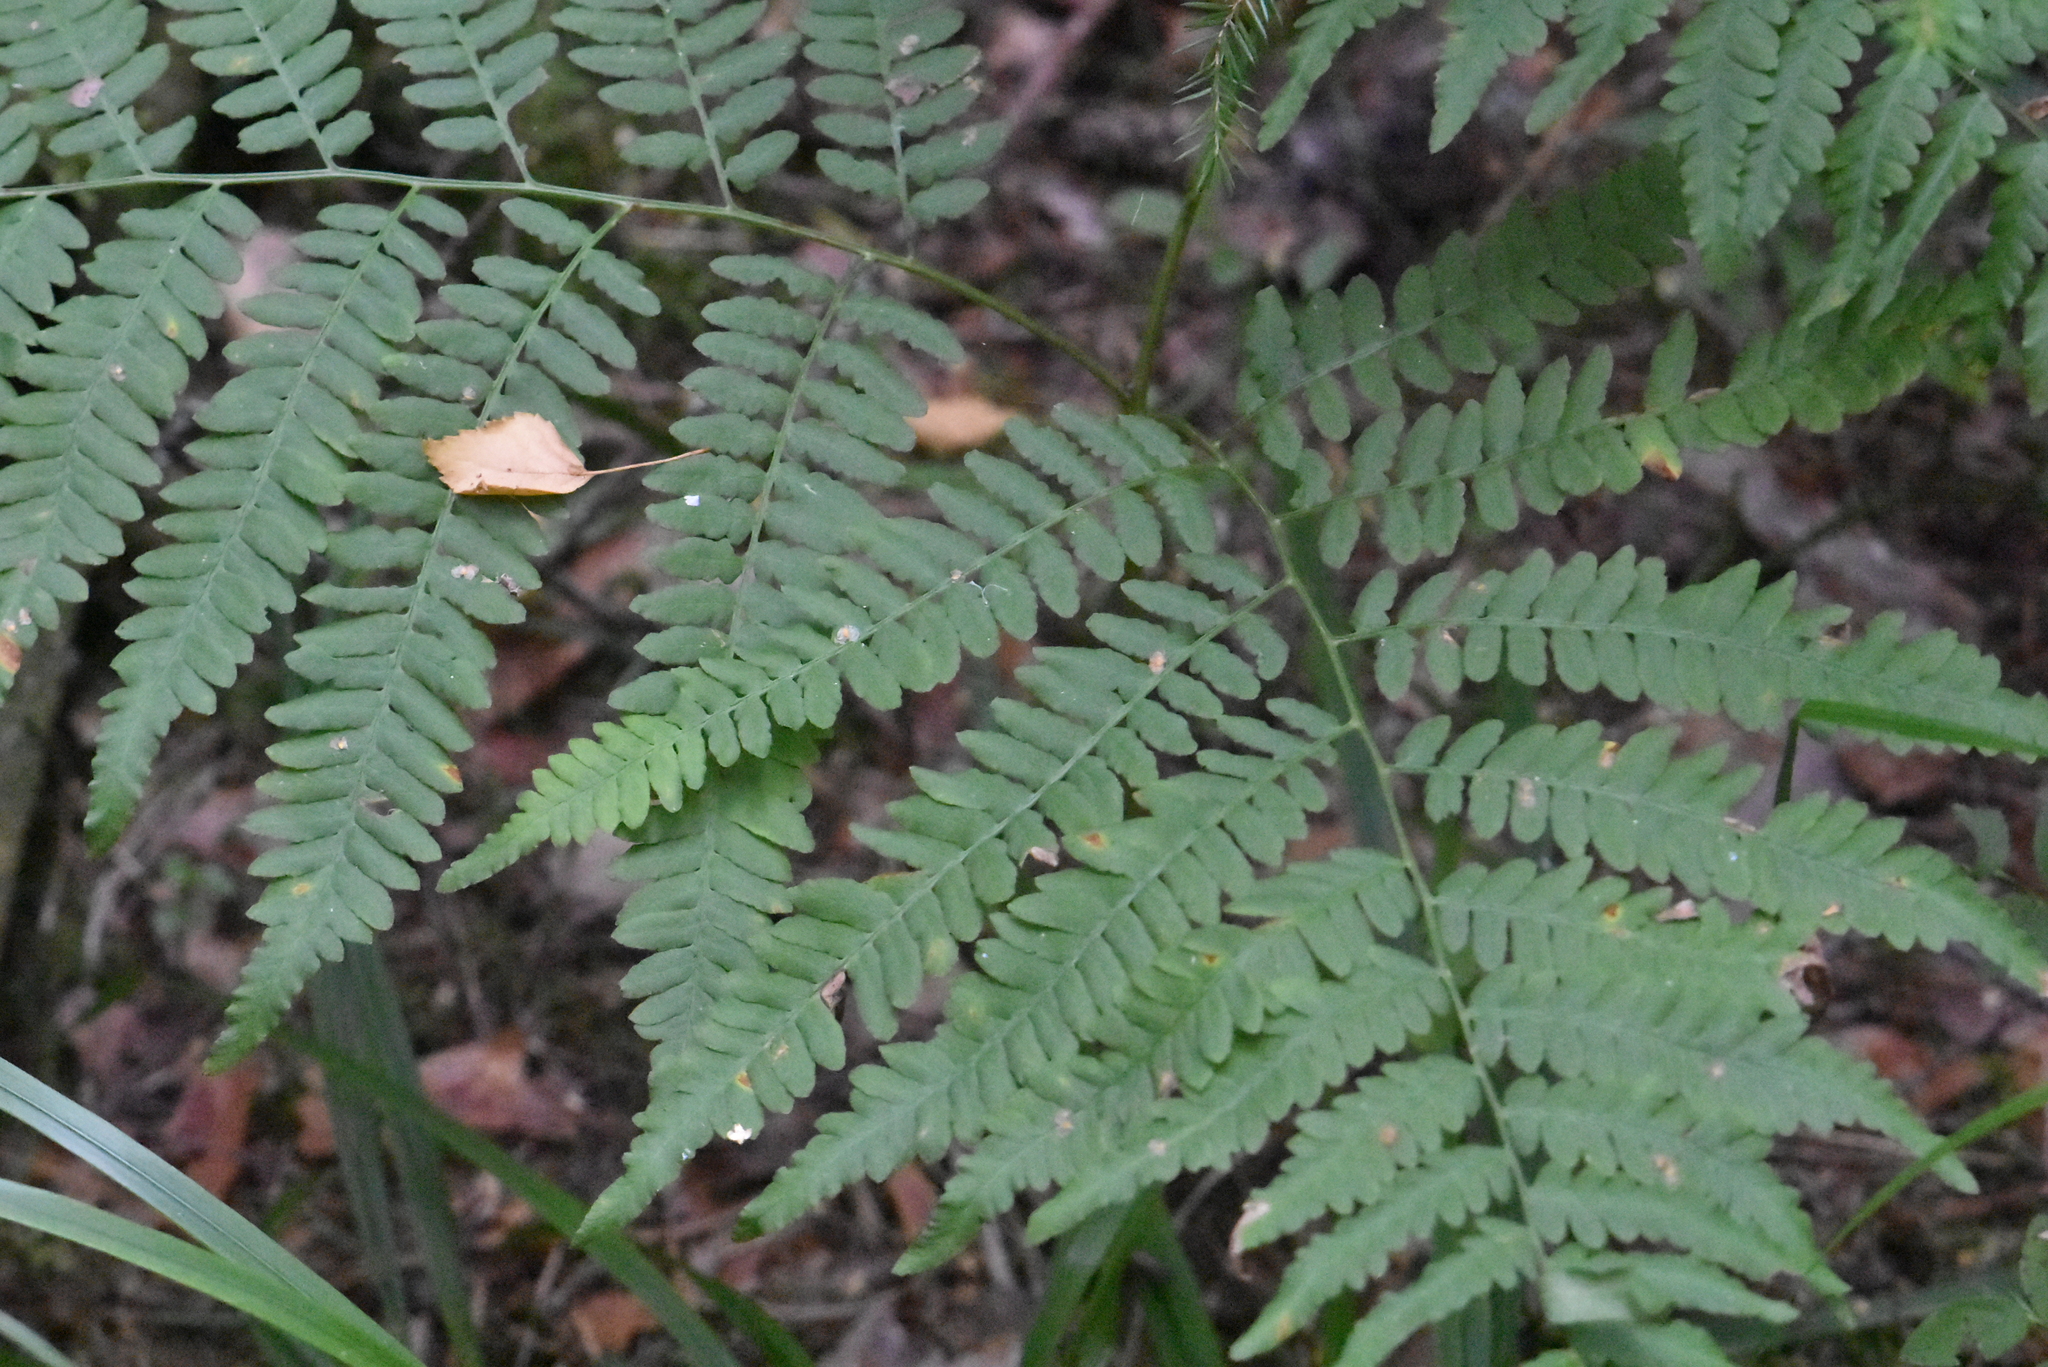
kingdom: Plantae
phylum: Tracheophyta
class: Polypodiopsida
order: Polypodiales
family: Dennstaedtiaceae
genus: Pteridium
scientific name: Pteridium aquilinum
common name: Bracken
